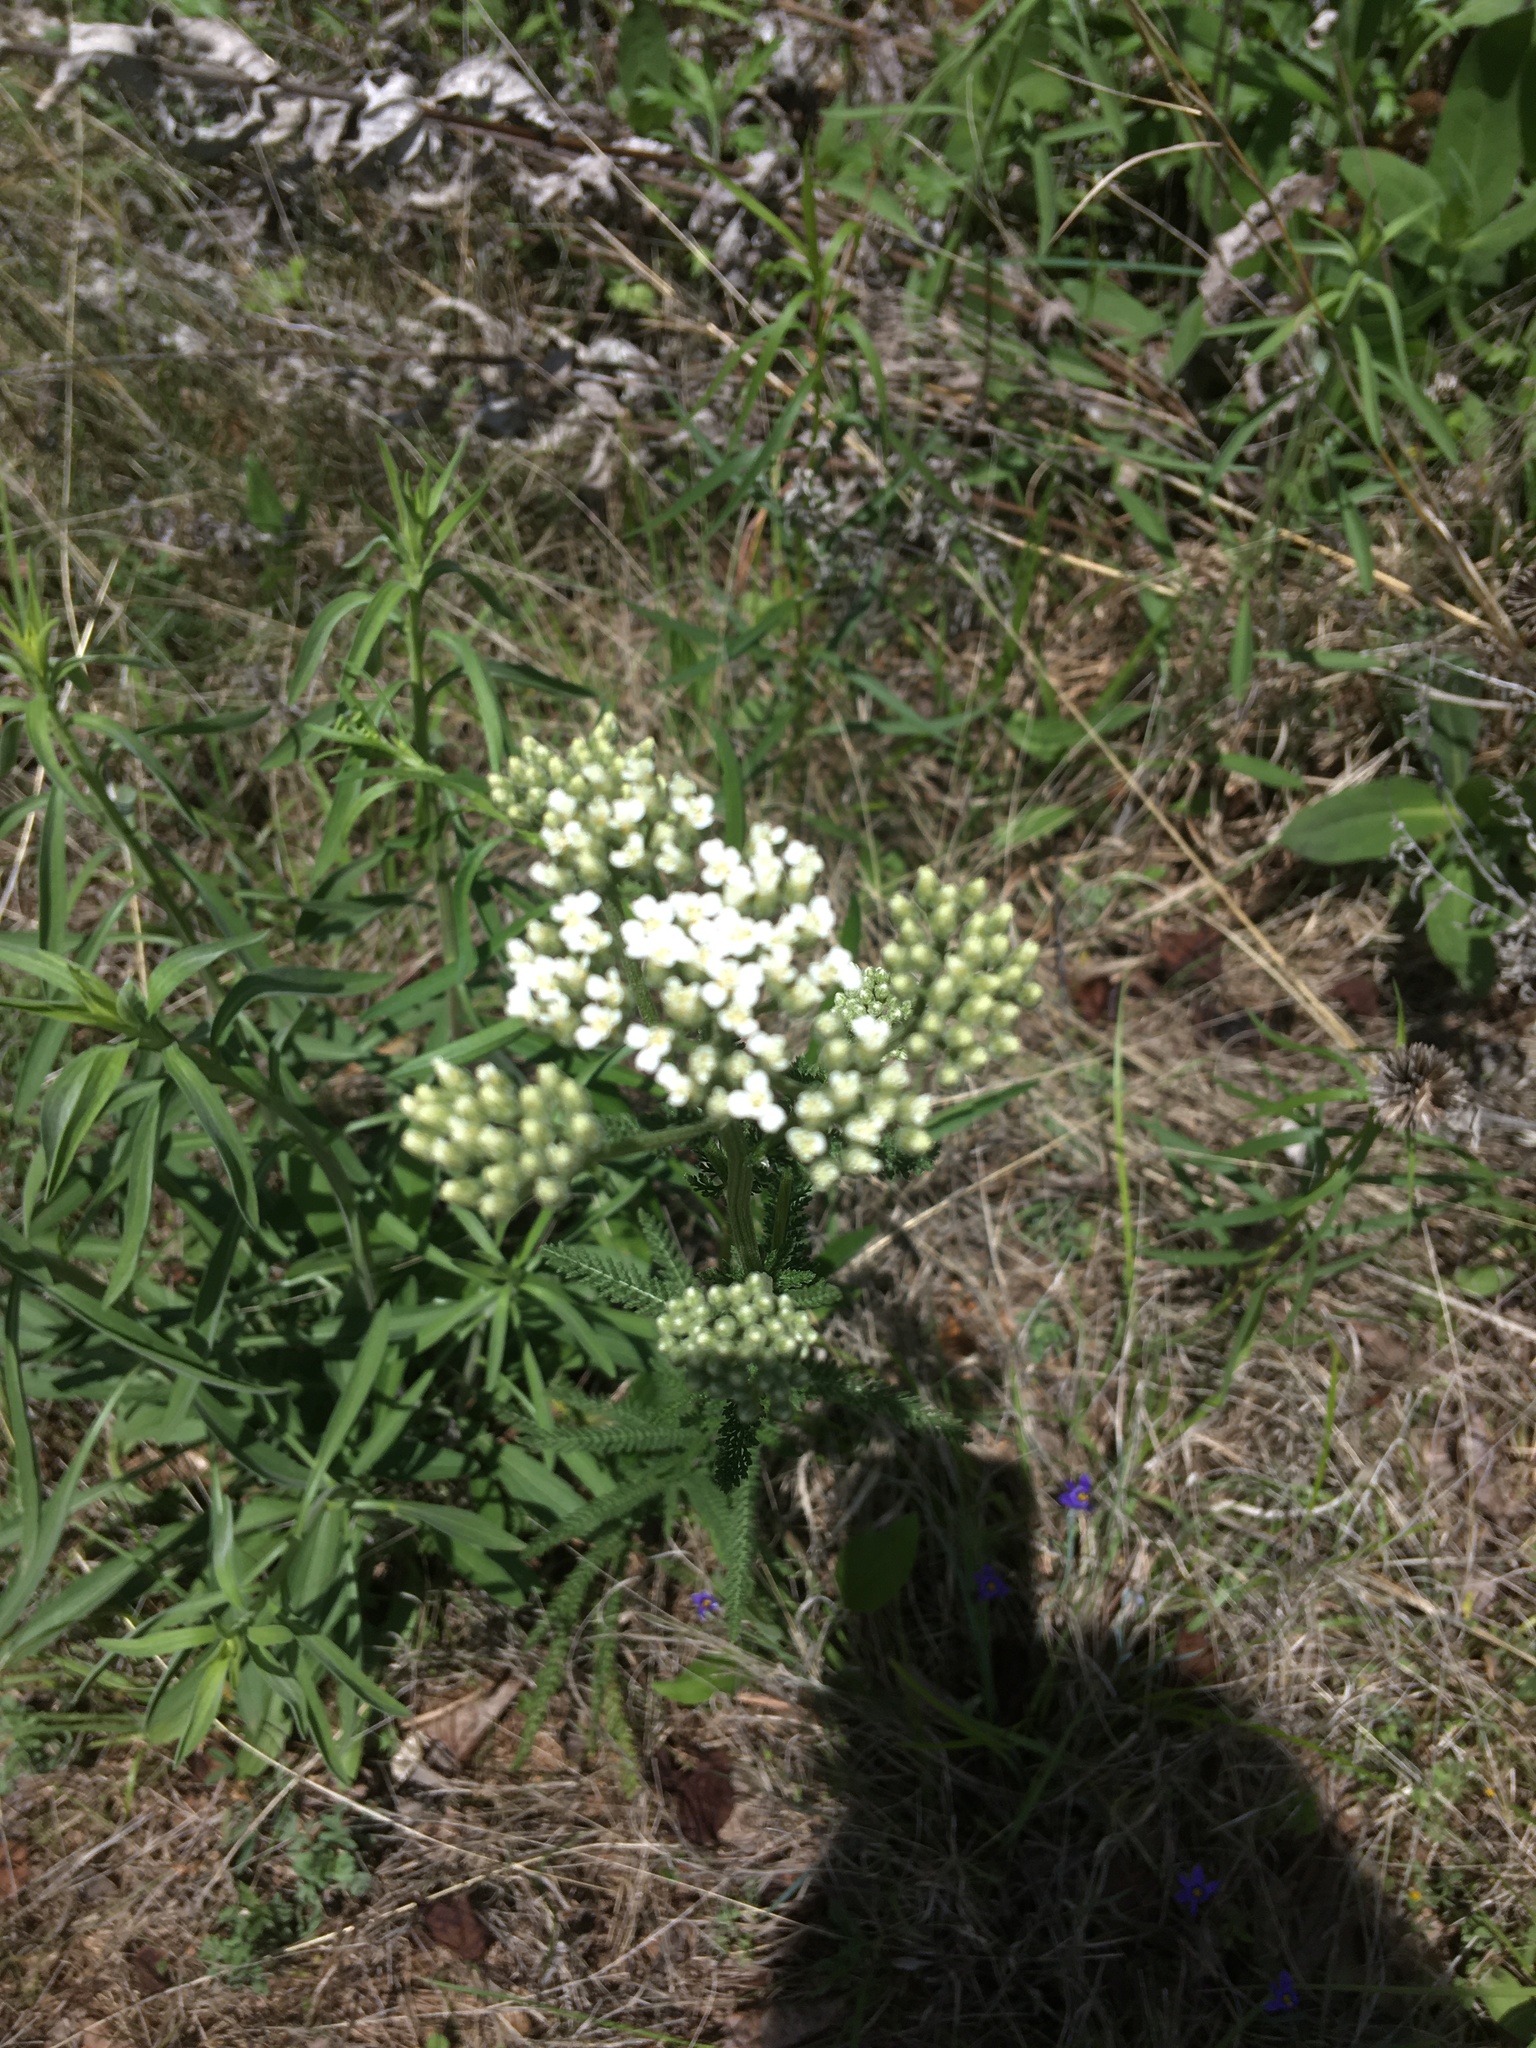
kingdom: Plantae
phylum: Tracheophyta
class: Magnoliopsida
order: Asterales
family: Asteraceae
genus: Achillea
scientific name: Achillea millefolium
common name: Yarrow
